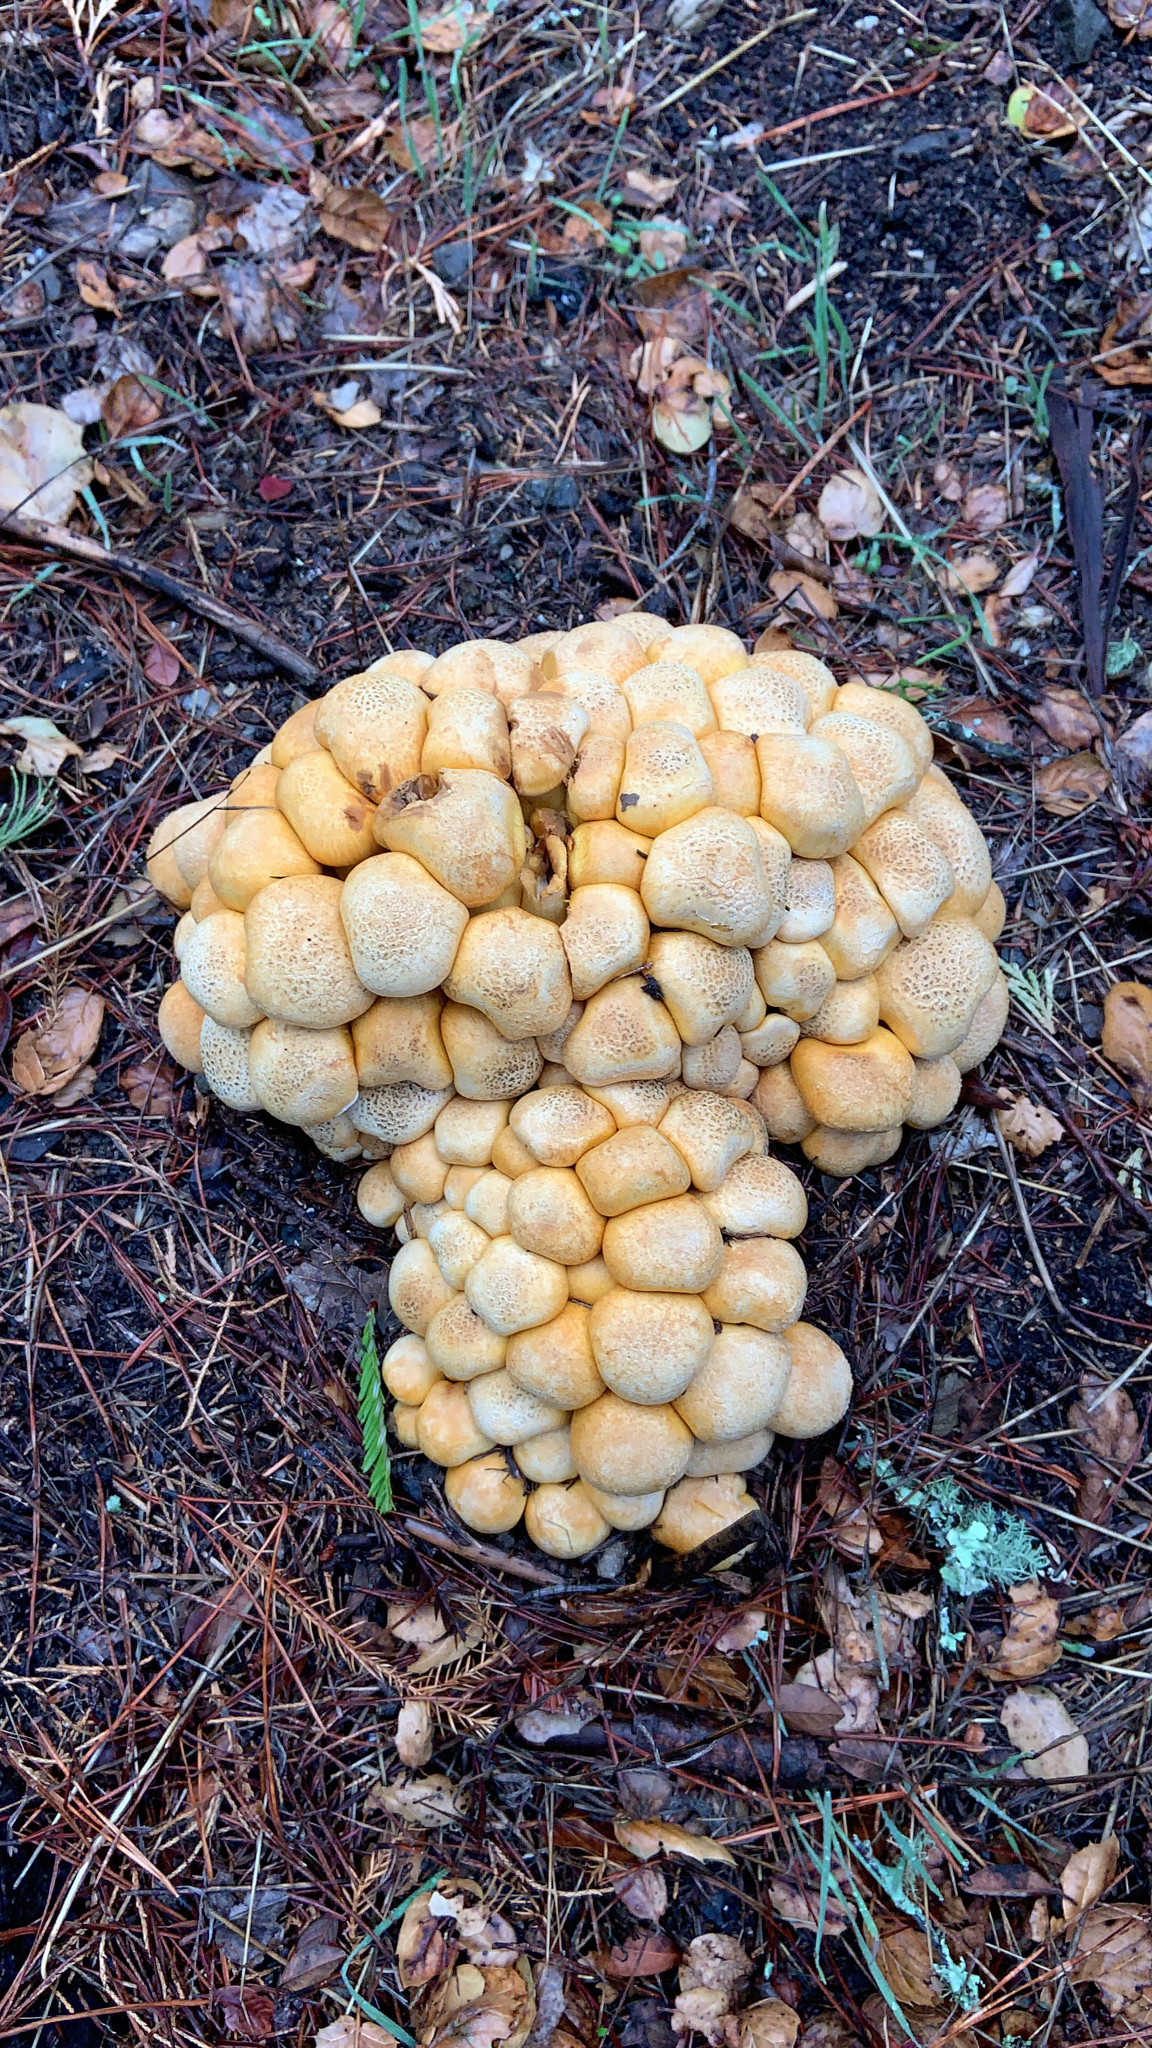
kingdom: Fungi
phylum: Basidiomycota
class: Agaricomycetes
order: Agaricales
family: Hymenogastraceae
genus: Gymnopilus
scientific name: Gymnopilus ventricosus
